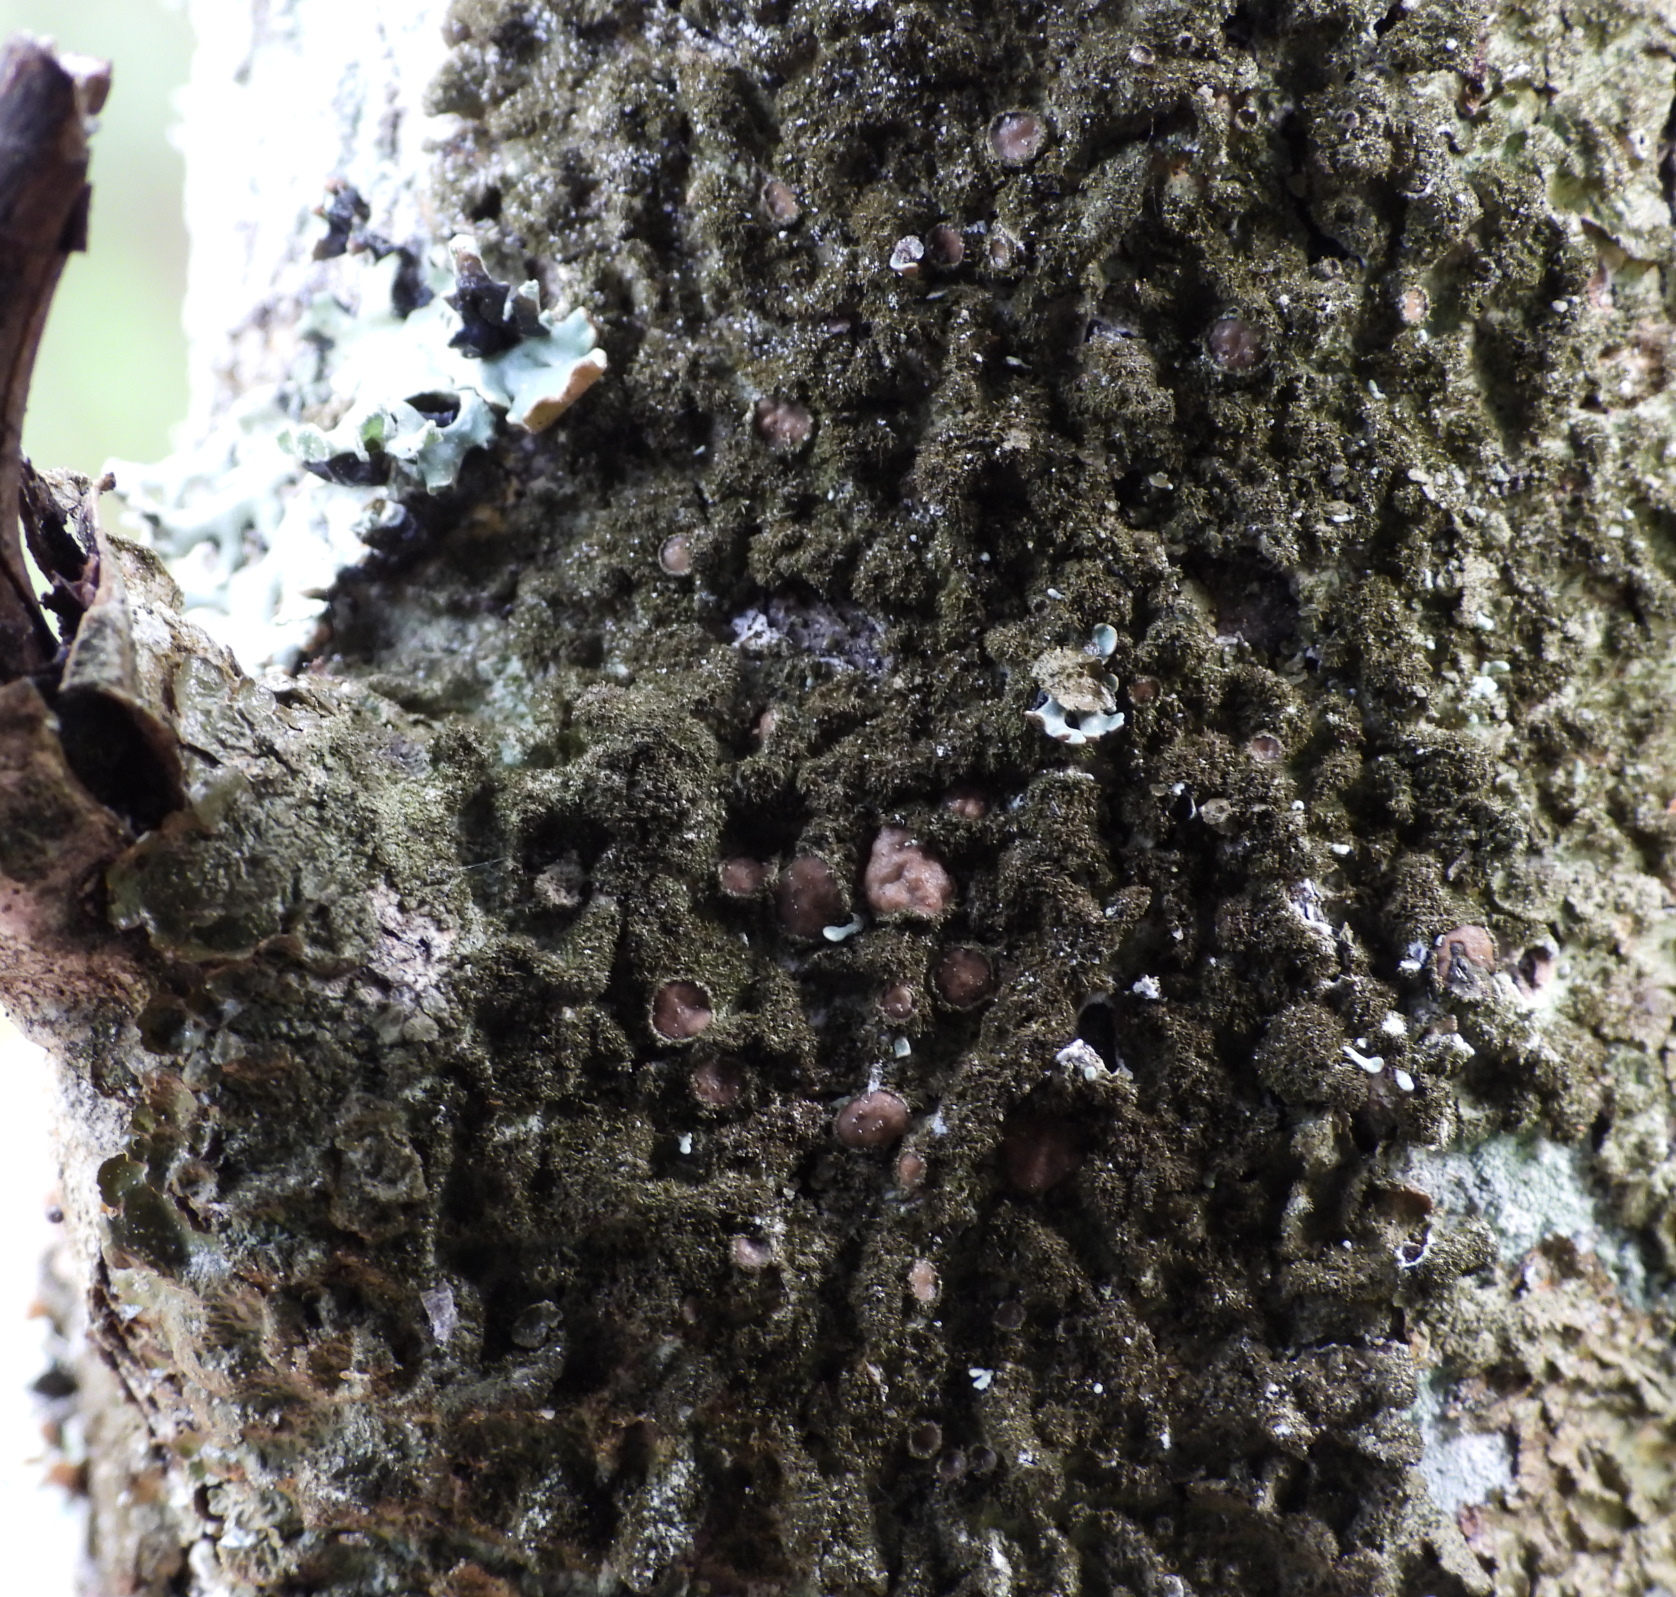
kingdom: Fungi
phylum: Ascomycota
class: Lecanoromycetes
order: Lecanorales
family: Parmeliaceae
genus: Melanelixia
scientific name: Melanelixia glabratula
